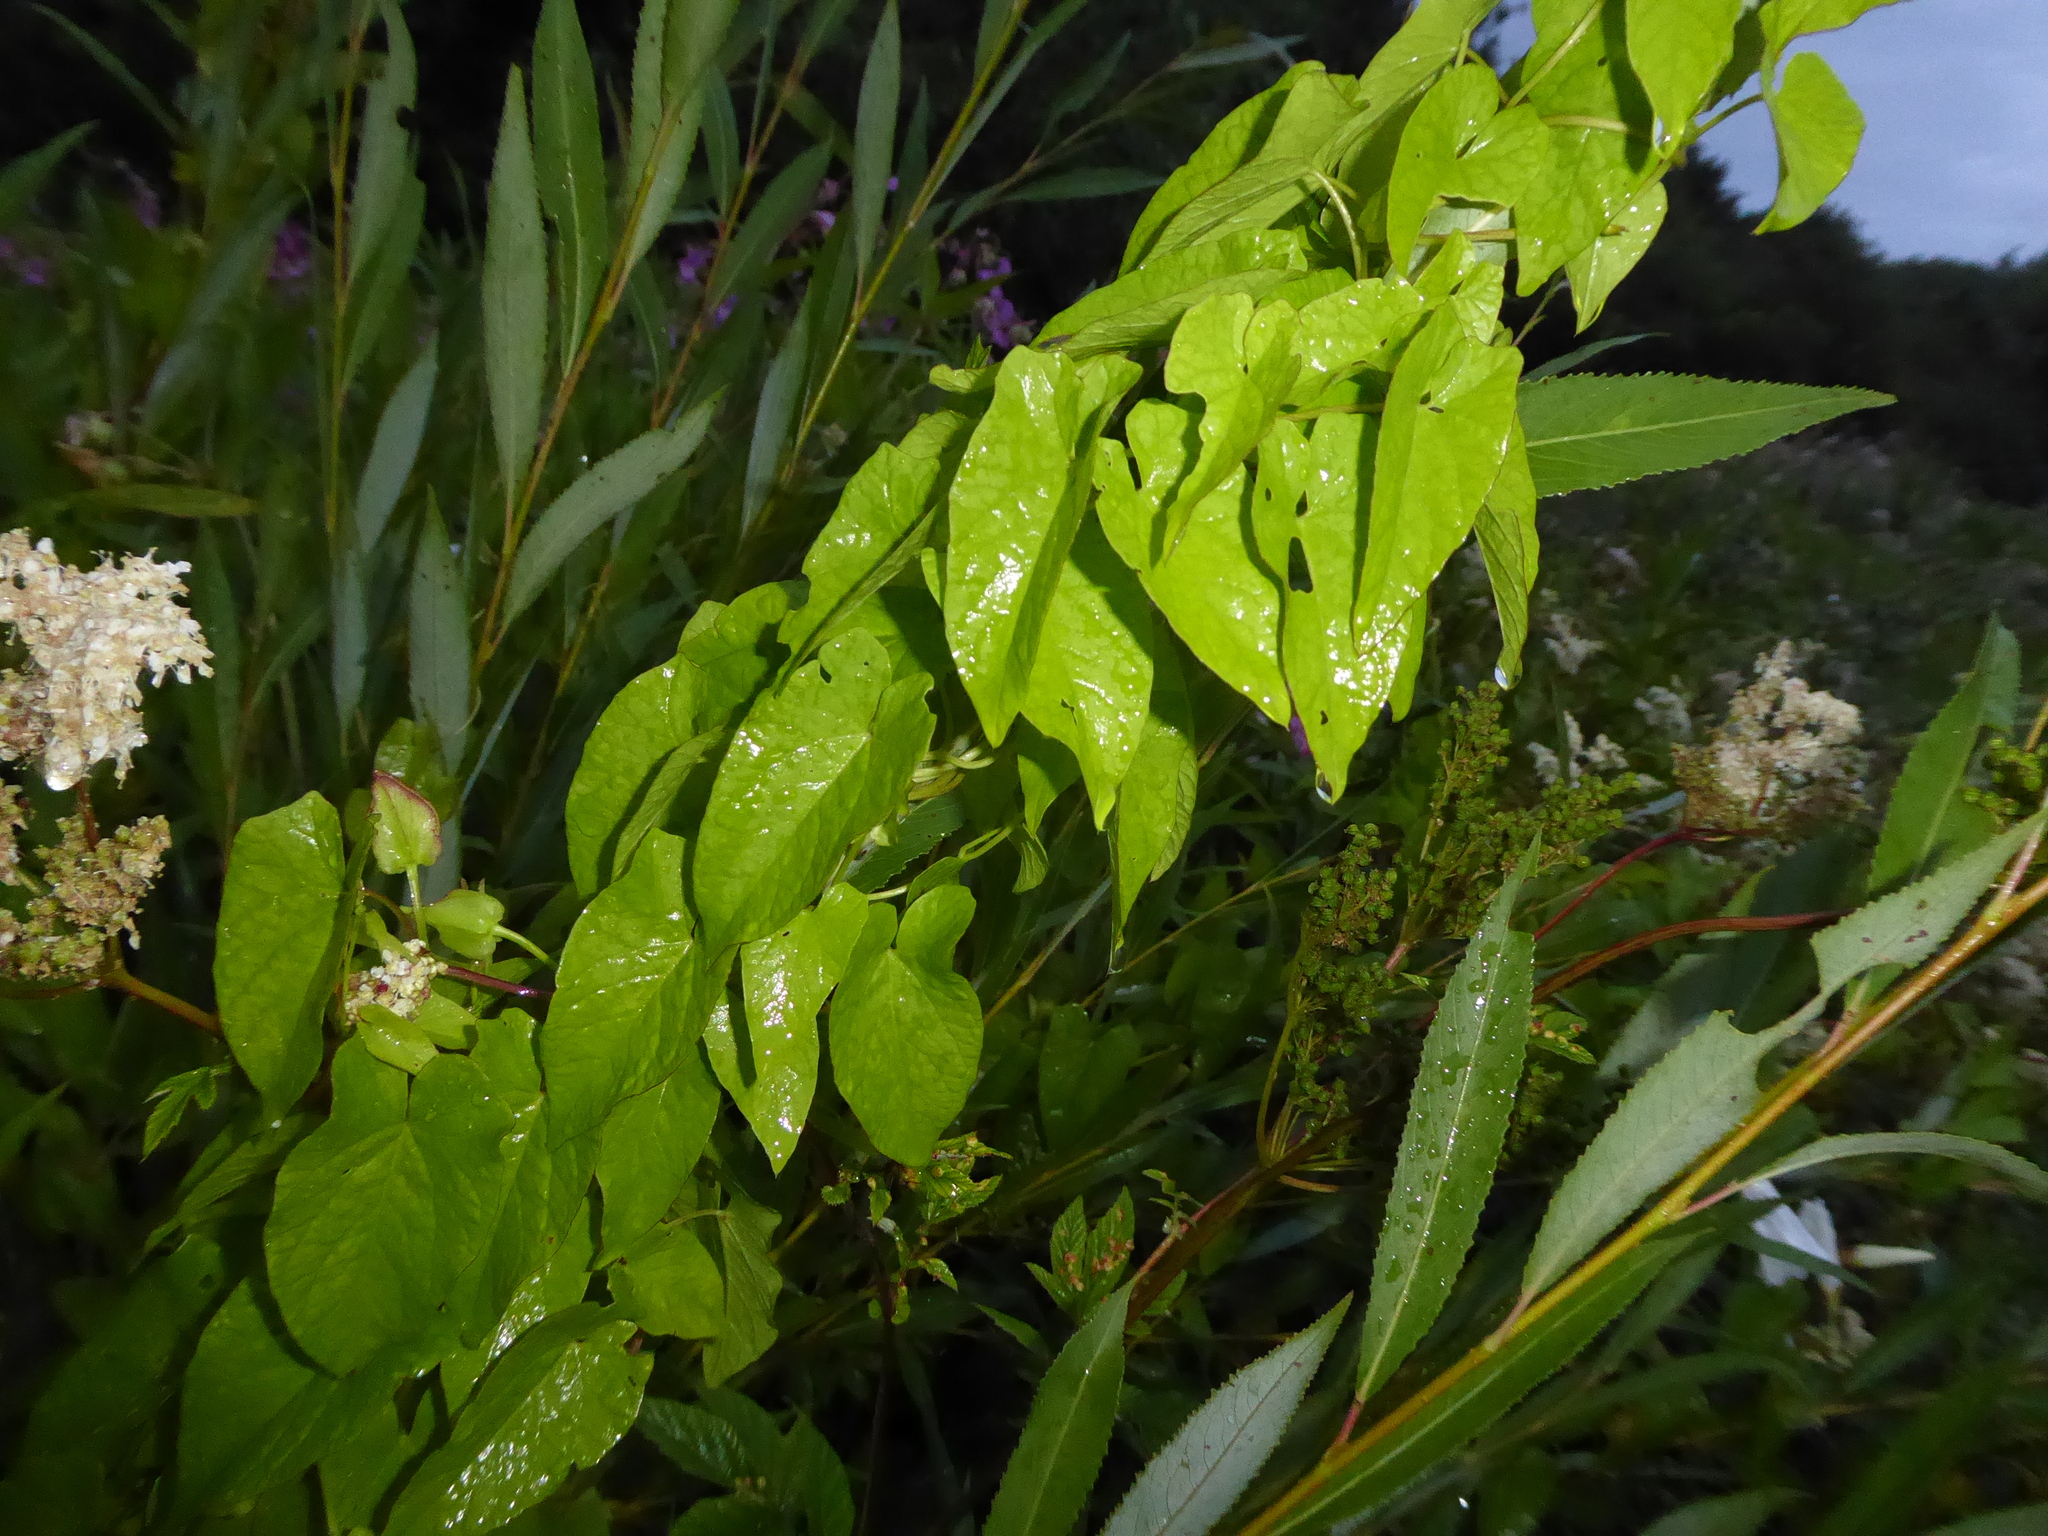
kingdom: Plantae
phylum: Tracheophyta
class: Magnoliopsida
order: Solanales
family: Convolvulaceae
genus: Calystegia
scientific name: Calystegia sepium
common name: Hedge bindweed
